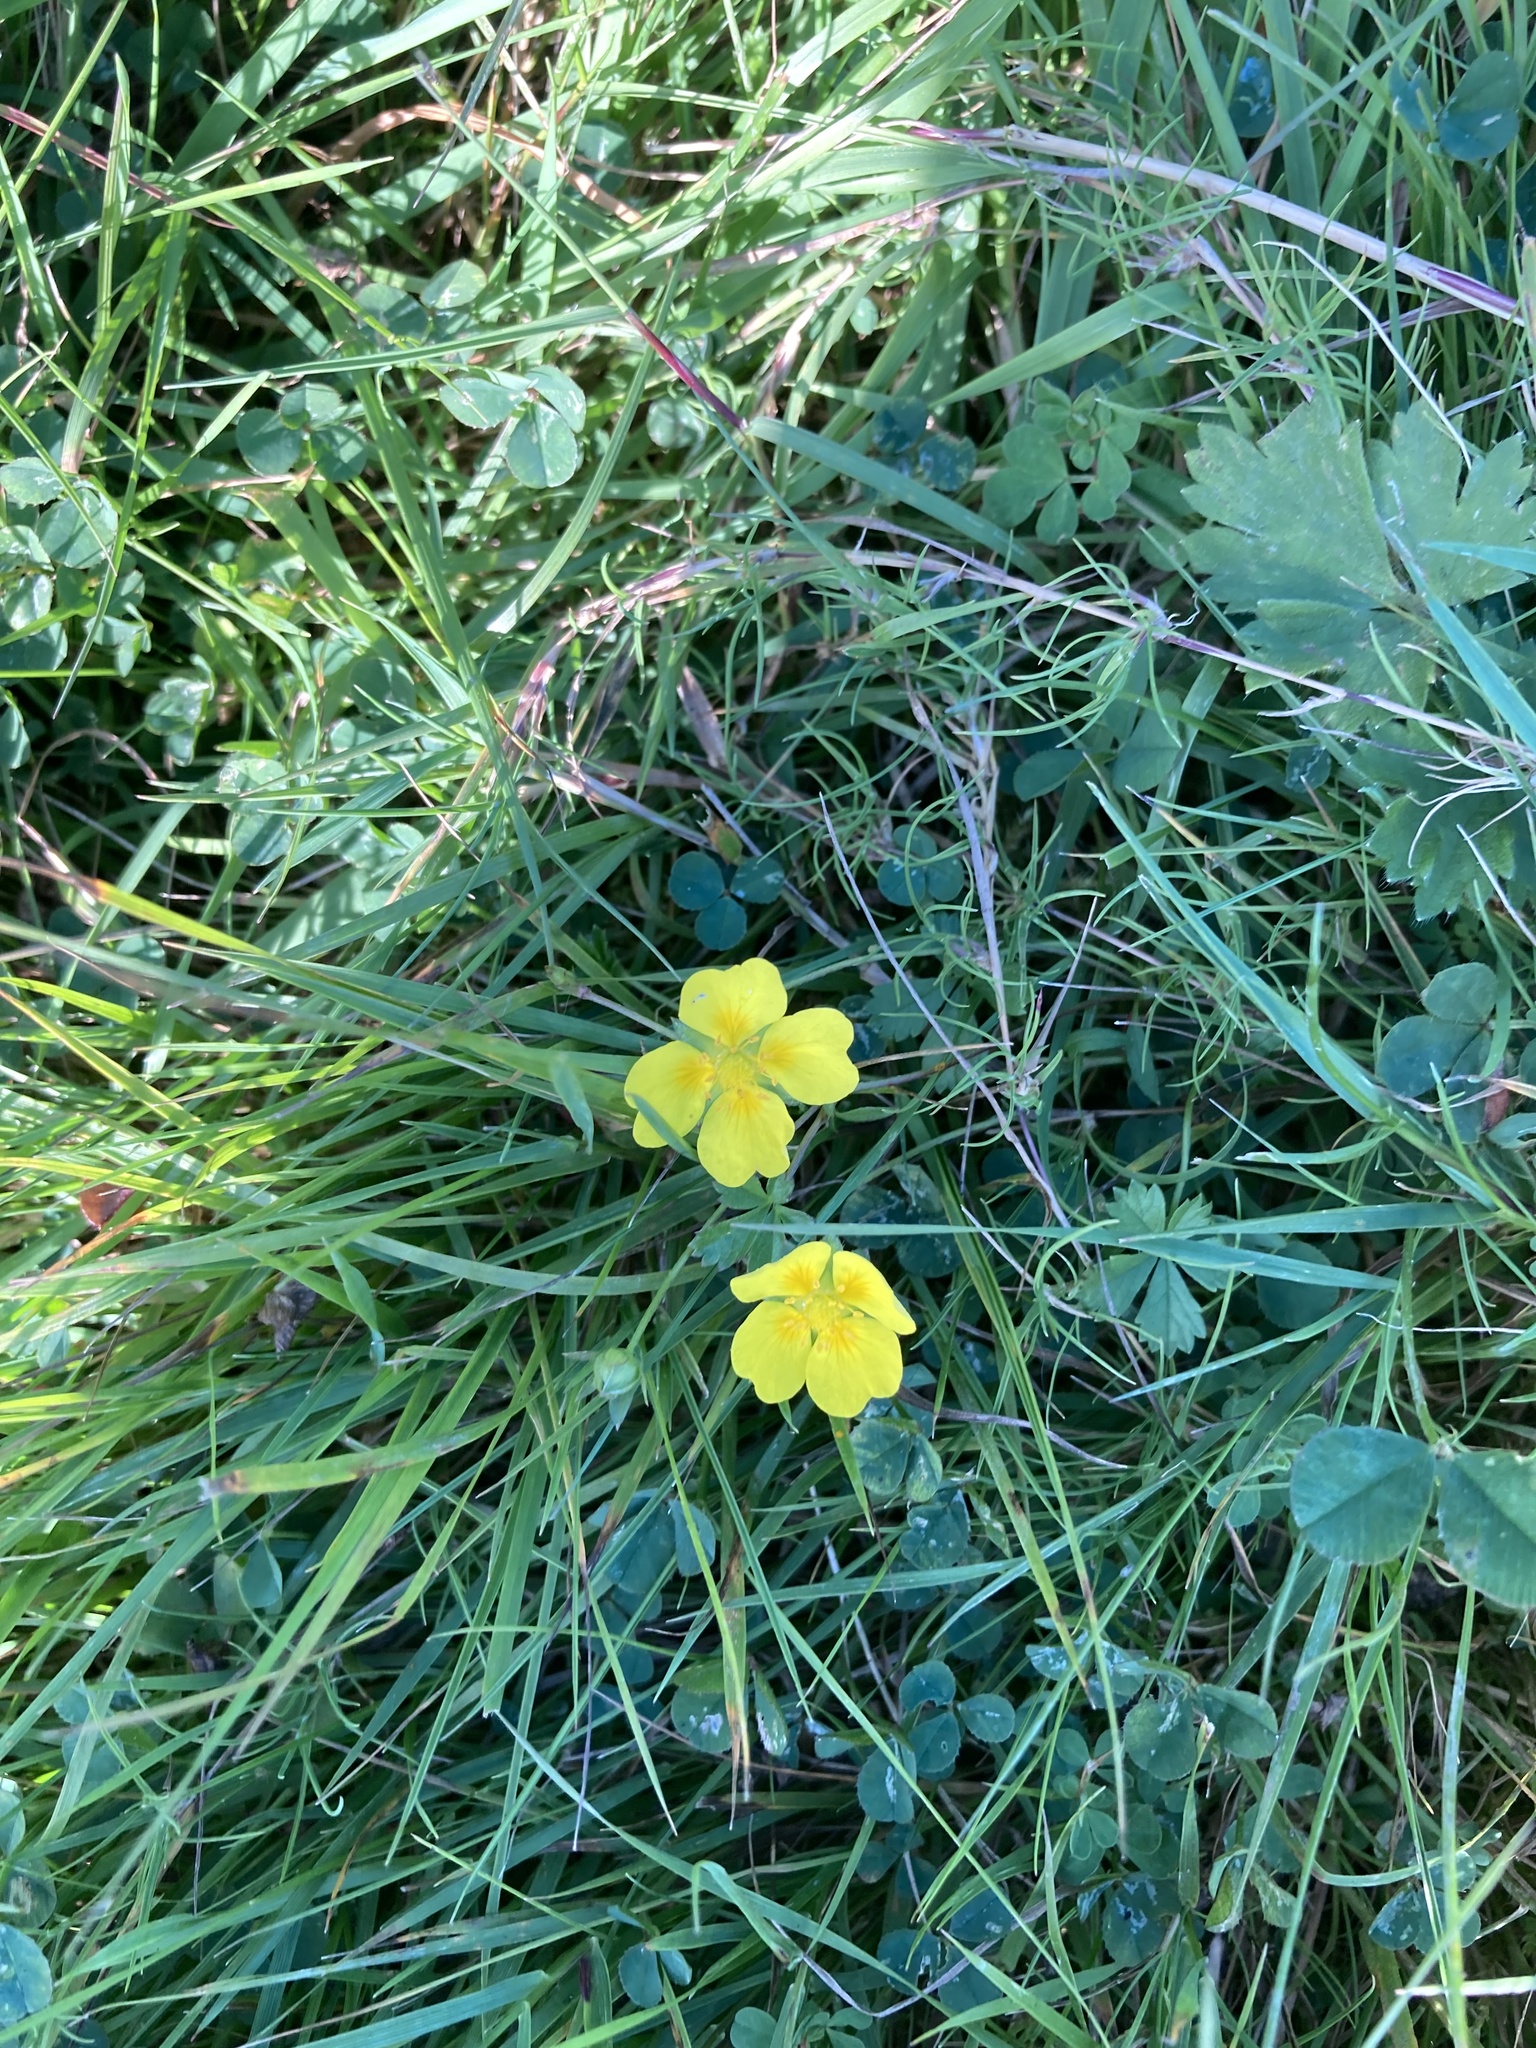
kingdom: Plantae
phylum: Tracheophyta
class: Magnoliopsida
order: Rosales
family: Rosaceae
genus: Potentilla
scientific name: Potentilla erecta
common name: Tormentil
